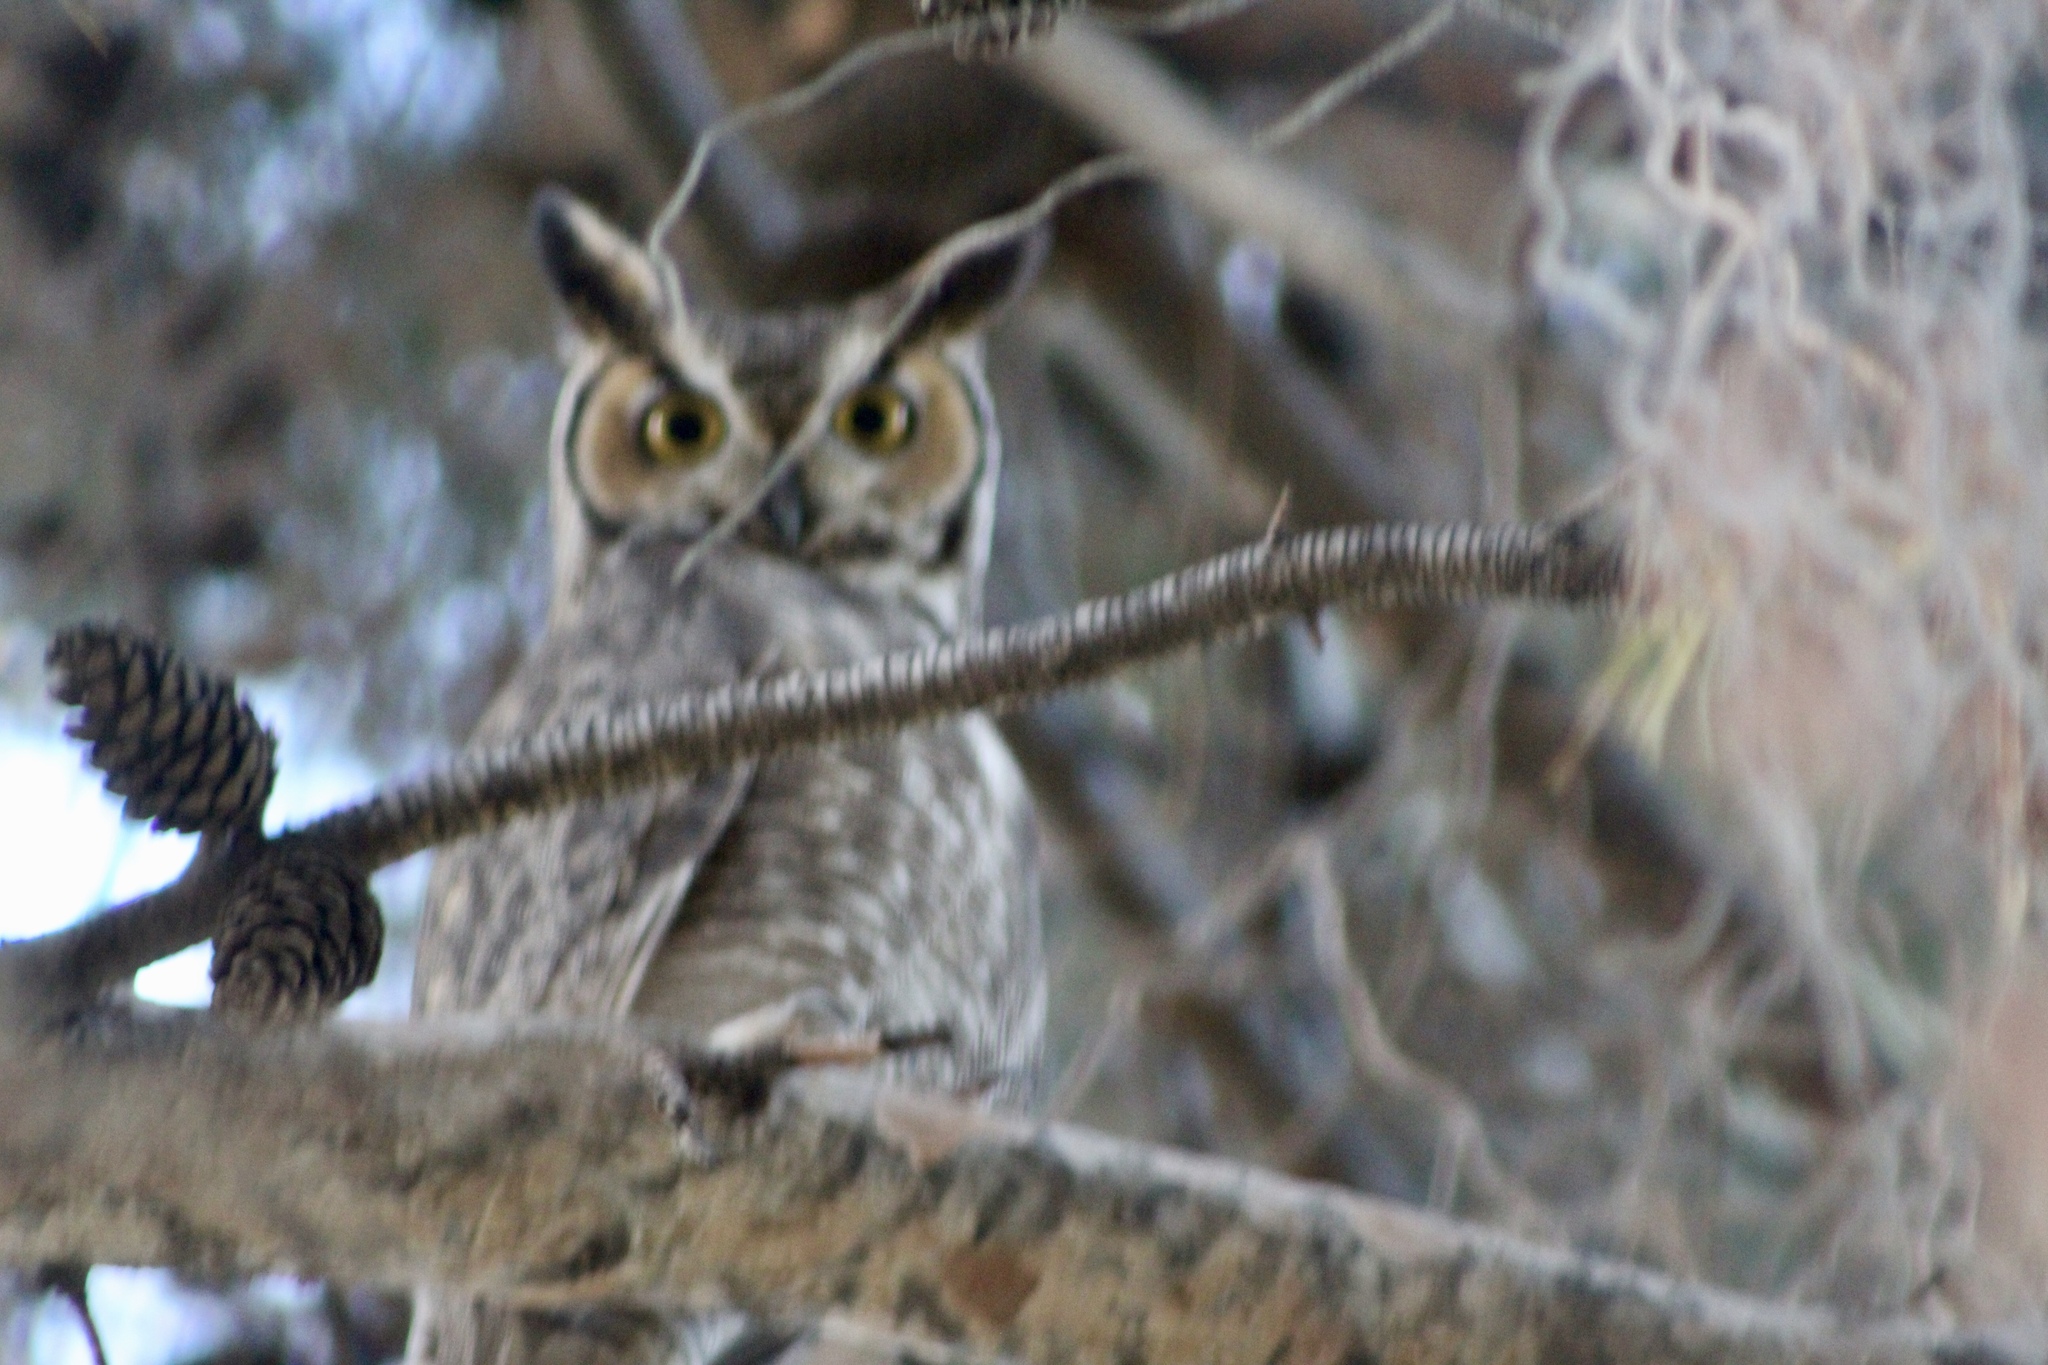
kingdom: Animalia
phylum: Chordata
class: Aves
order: Strigiformes
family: Strigidae
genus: Bubo
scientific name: Bubo virginianus
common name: Great horned owl
